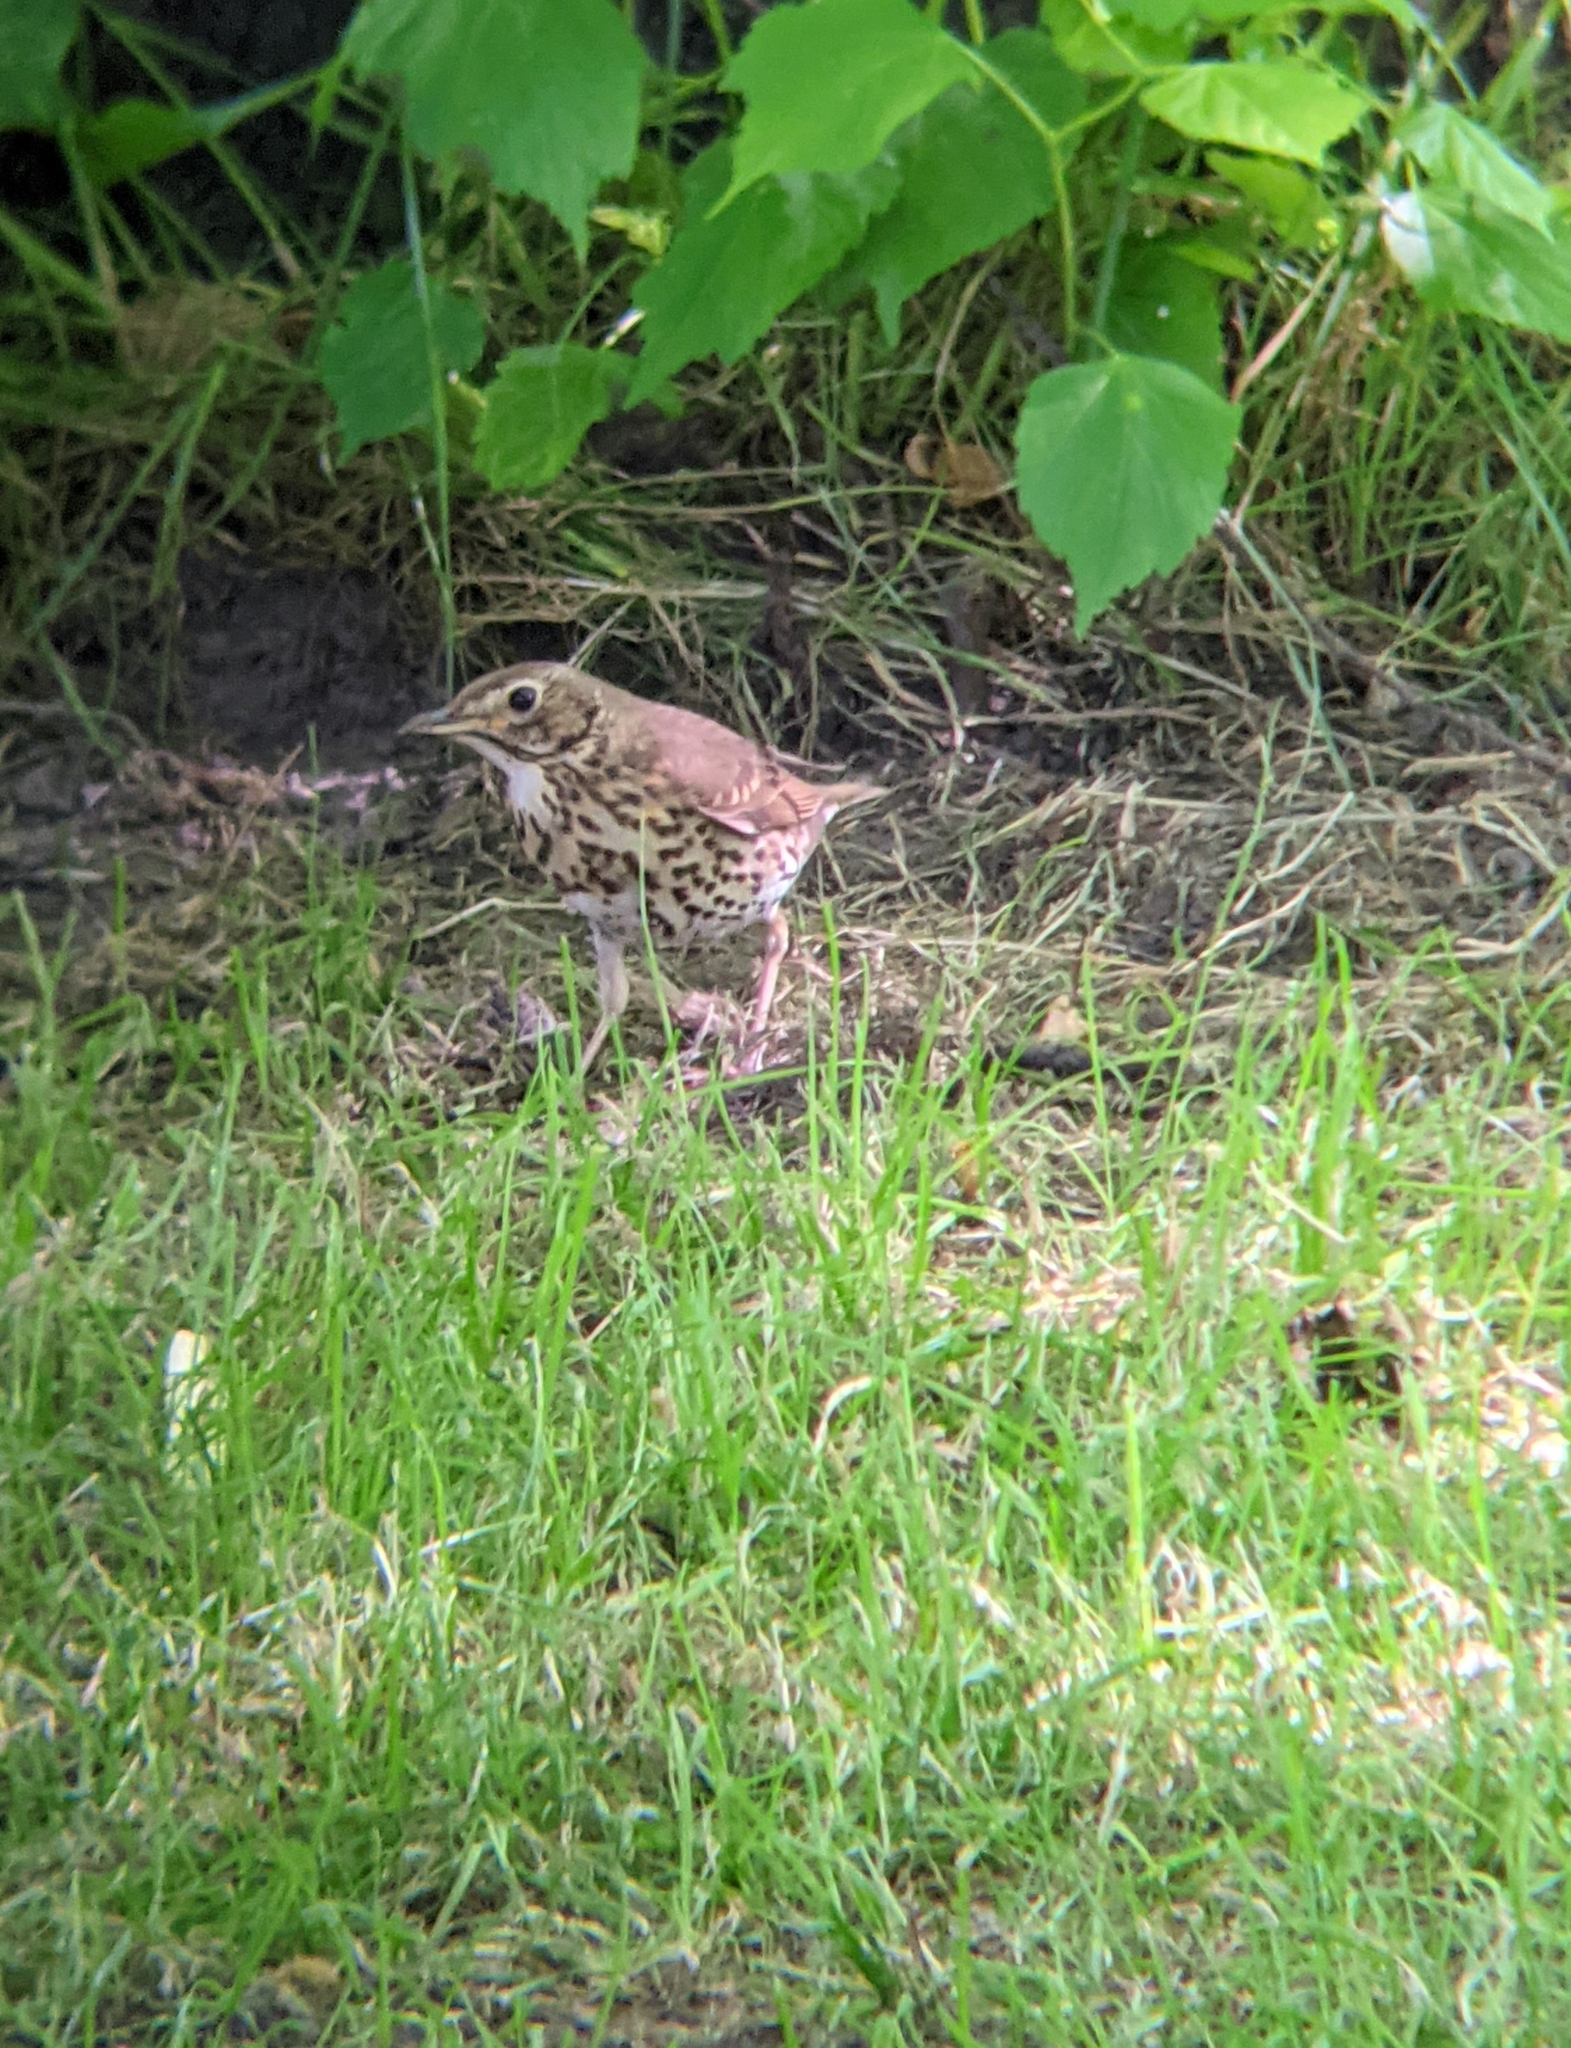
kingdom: Animalia
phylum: Chordata
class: Aves
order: Passeriformes
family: Turdidae
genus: Turdus
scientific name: Turdus philomelos
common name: Song thrush
